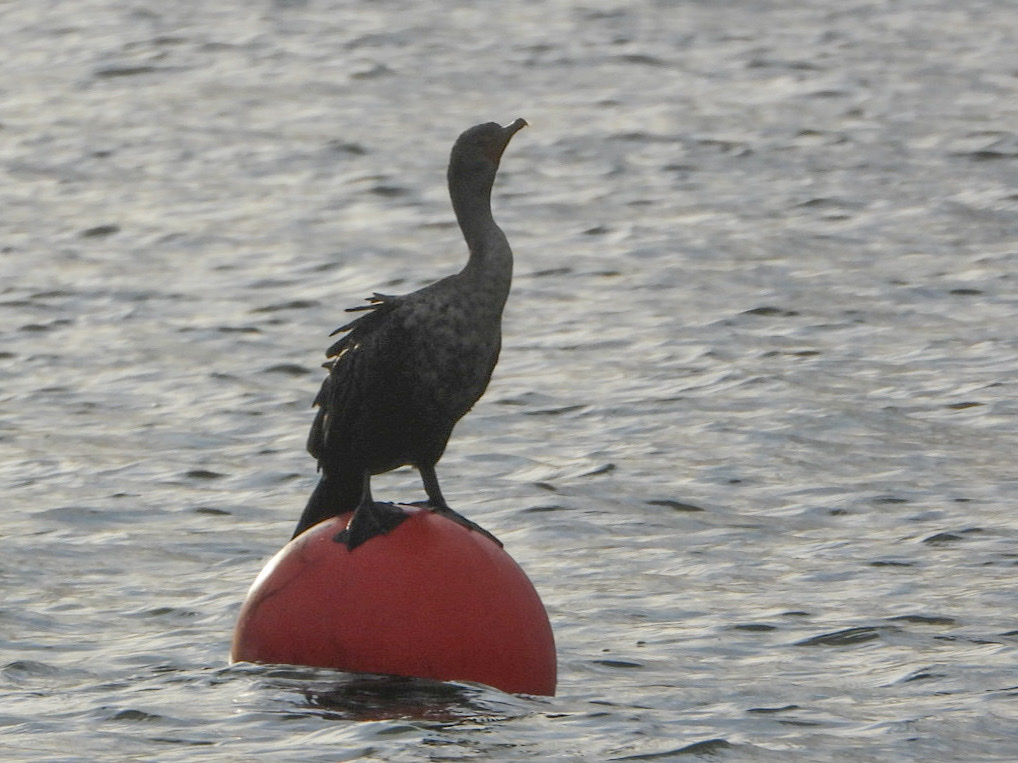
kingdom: Animalia
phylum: Chordata
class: Aves
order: Suliformes
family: Phalacrocoracidae
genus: Phalacrocorax
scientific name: Phalacrocorax auritus
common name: Double-crested cormorant
